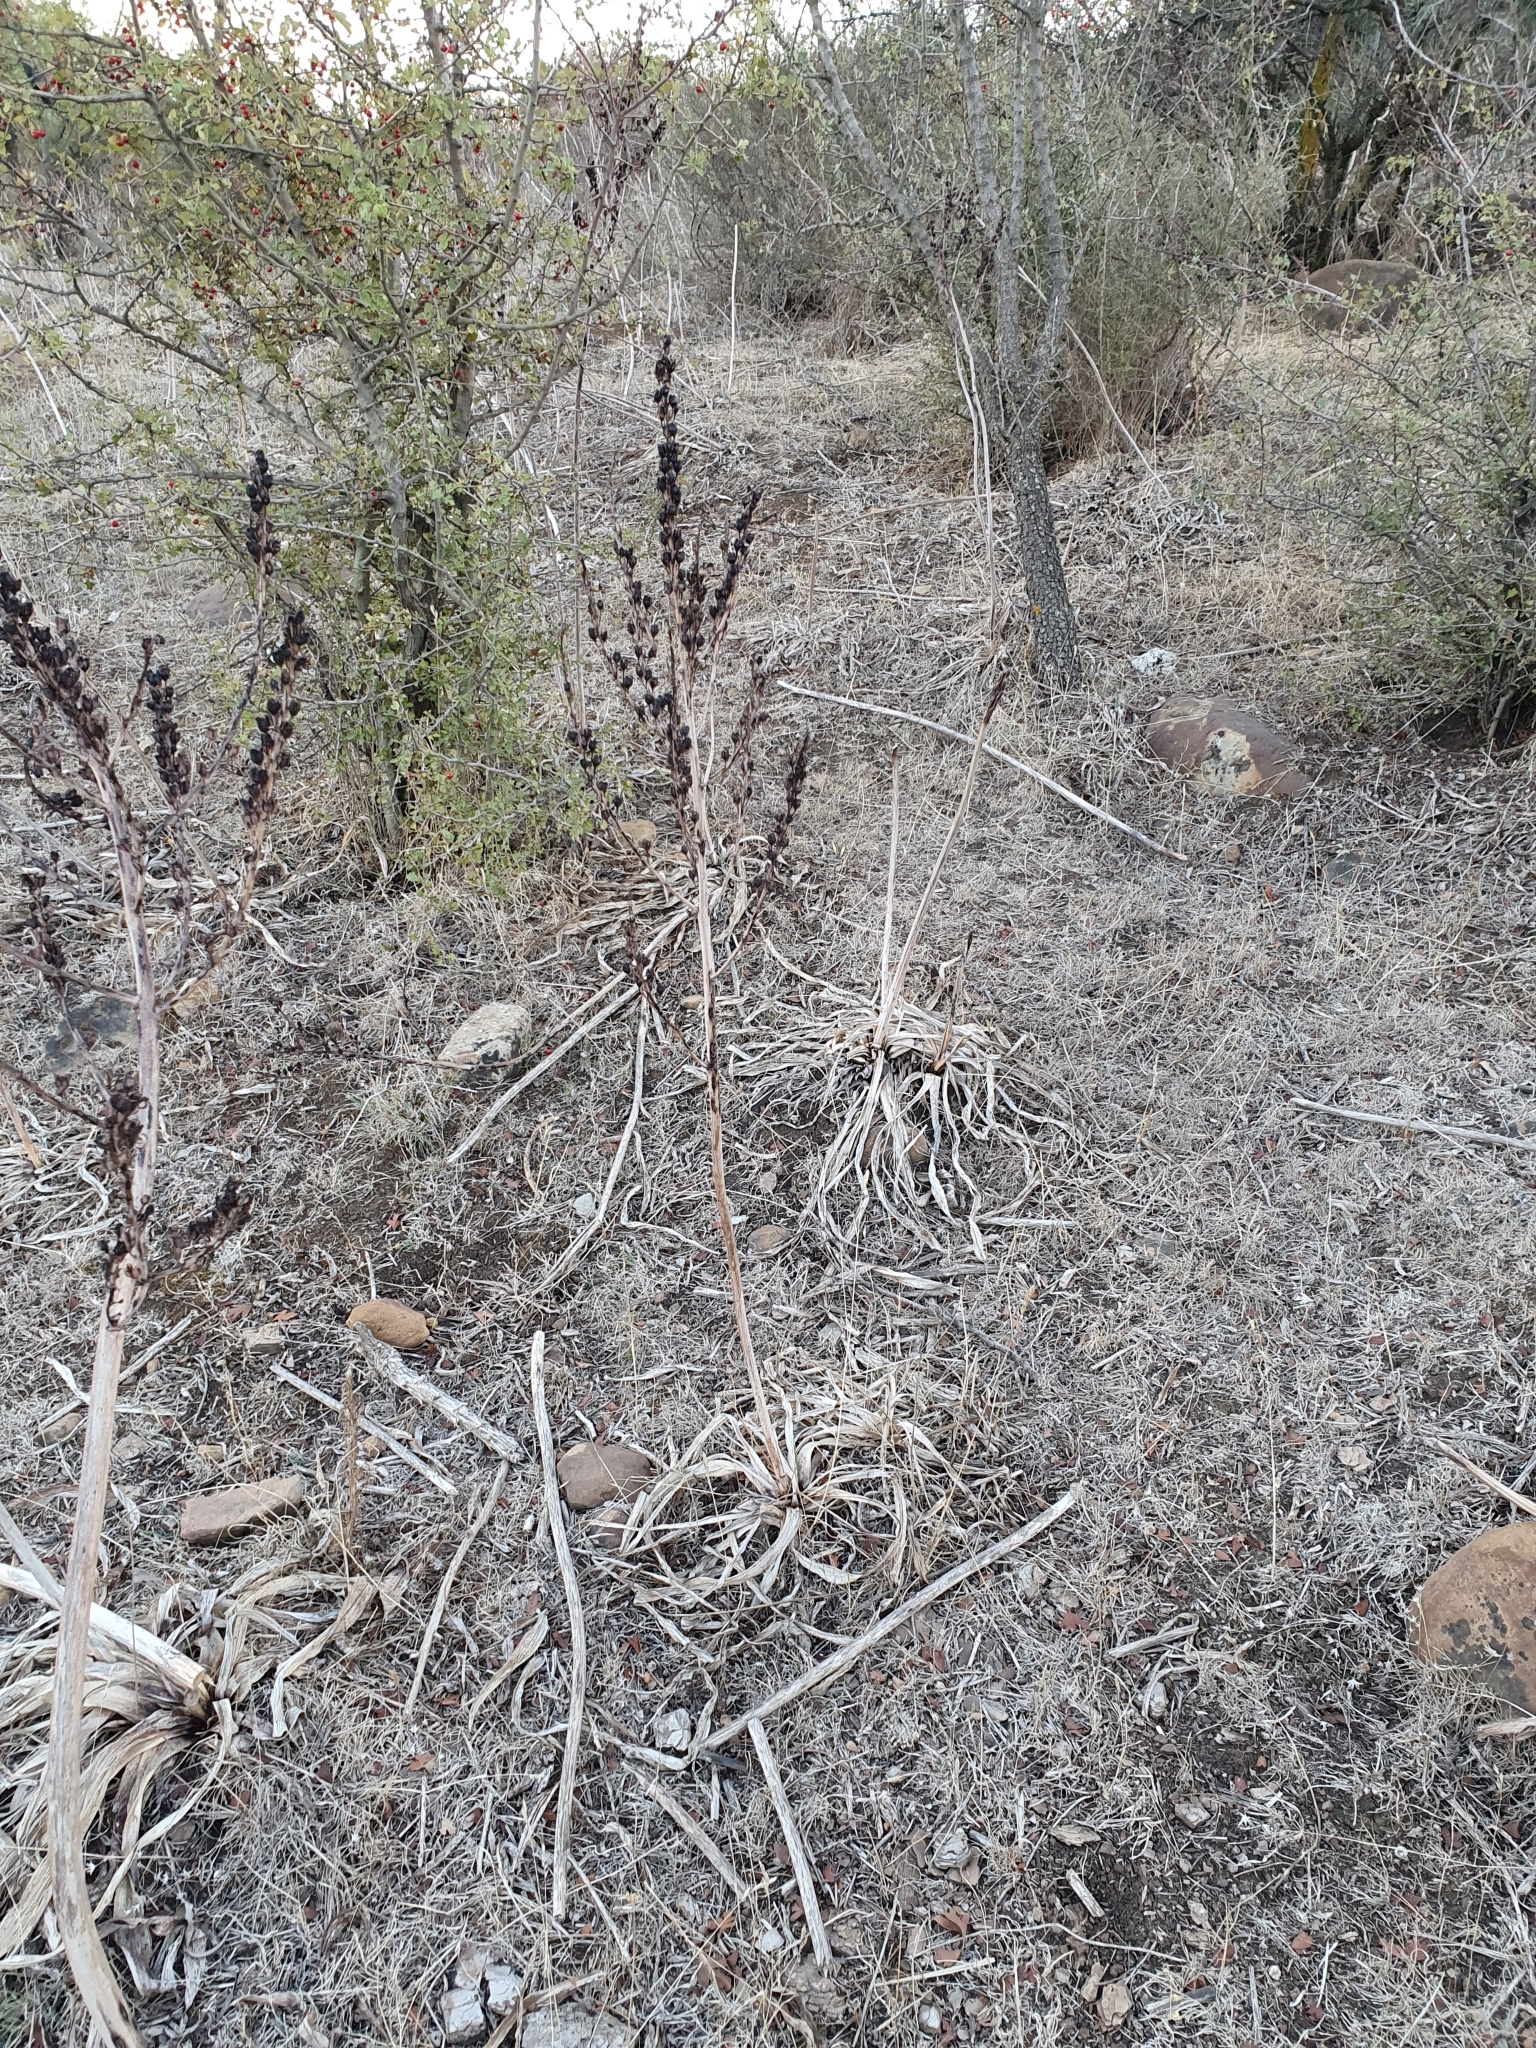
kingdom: Plantae
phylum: Tracheophyta
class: Liliopsida
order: Asparagales
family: Asphodelaceae
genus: Asphodelus
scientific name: Asphodelus ramosus
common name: Silverrod
